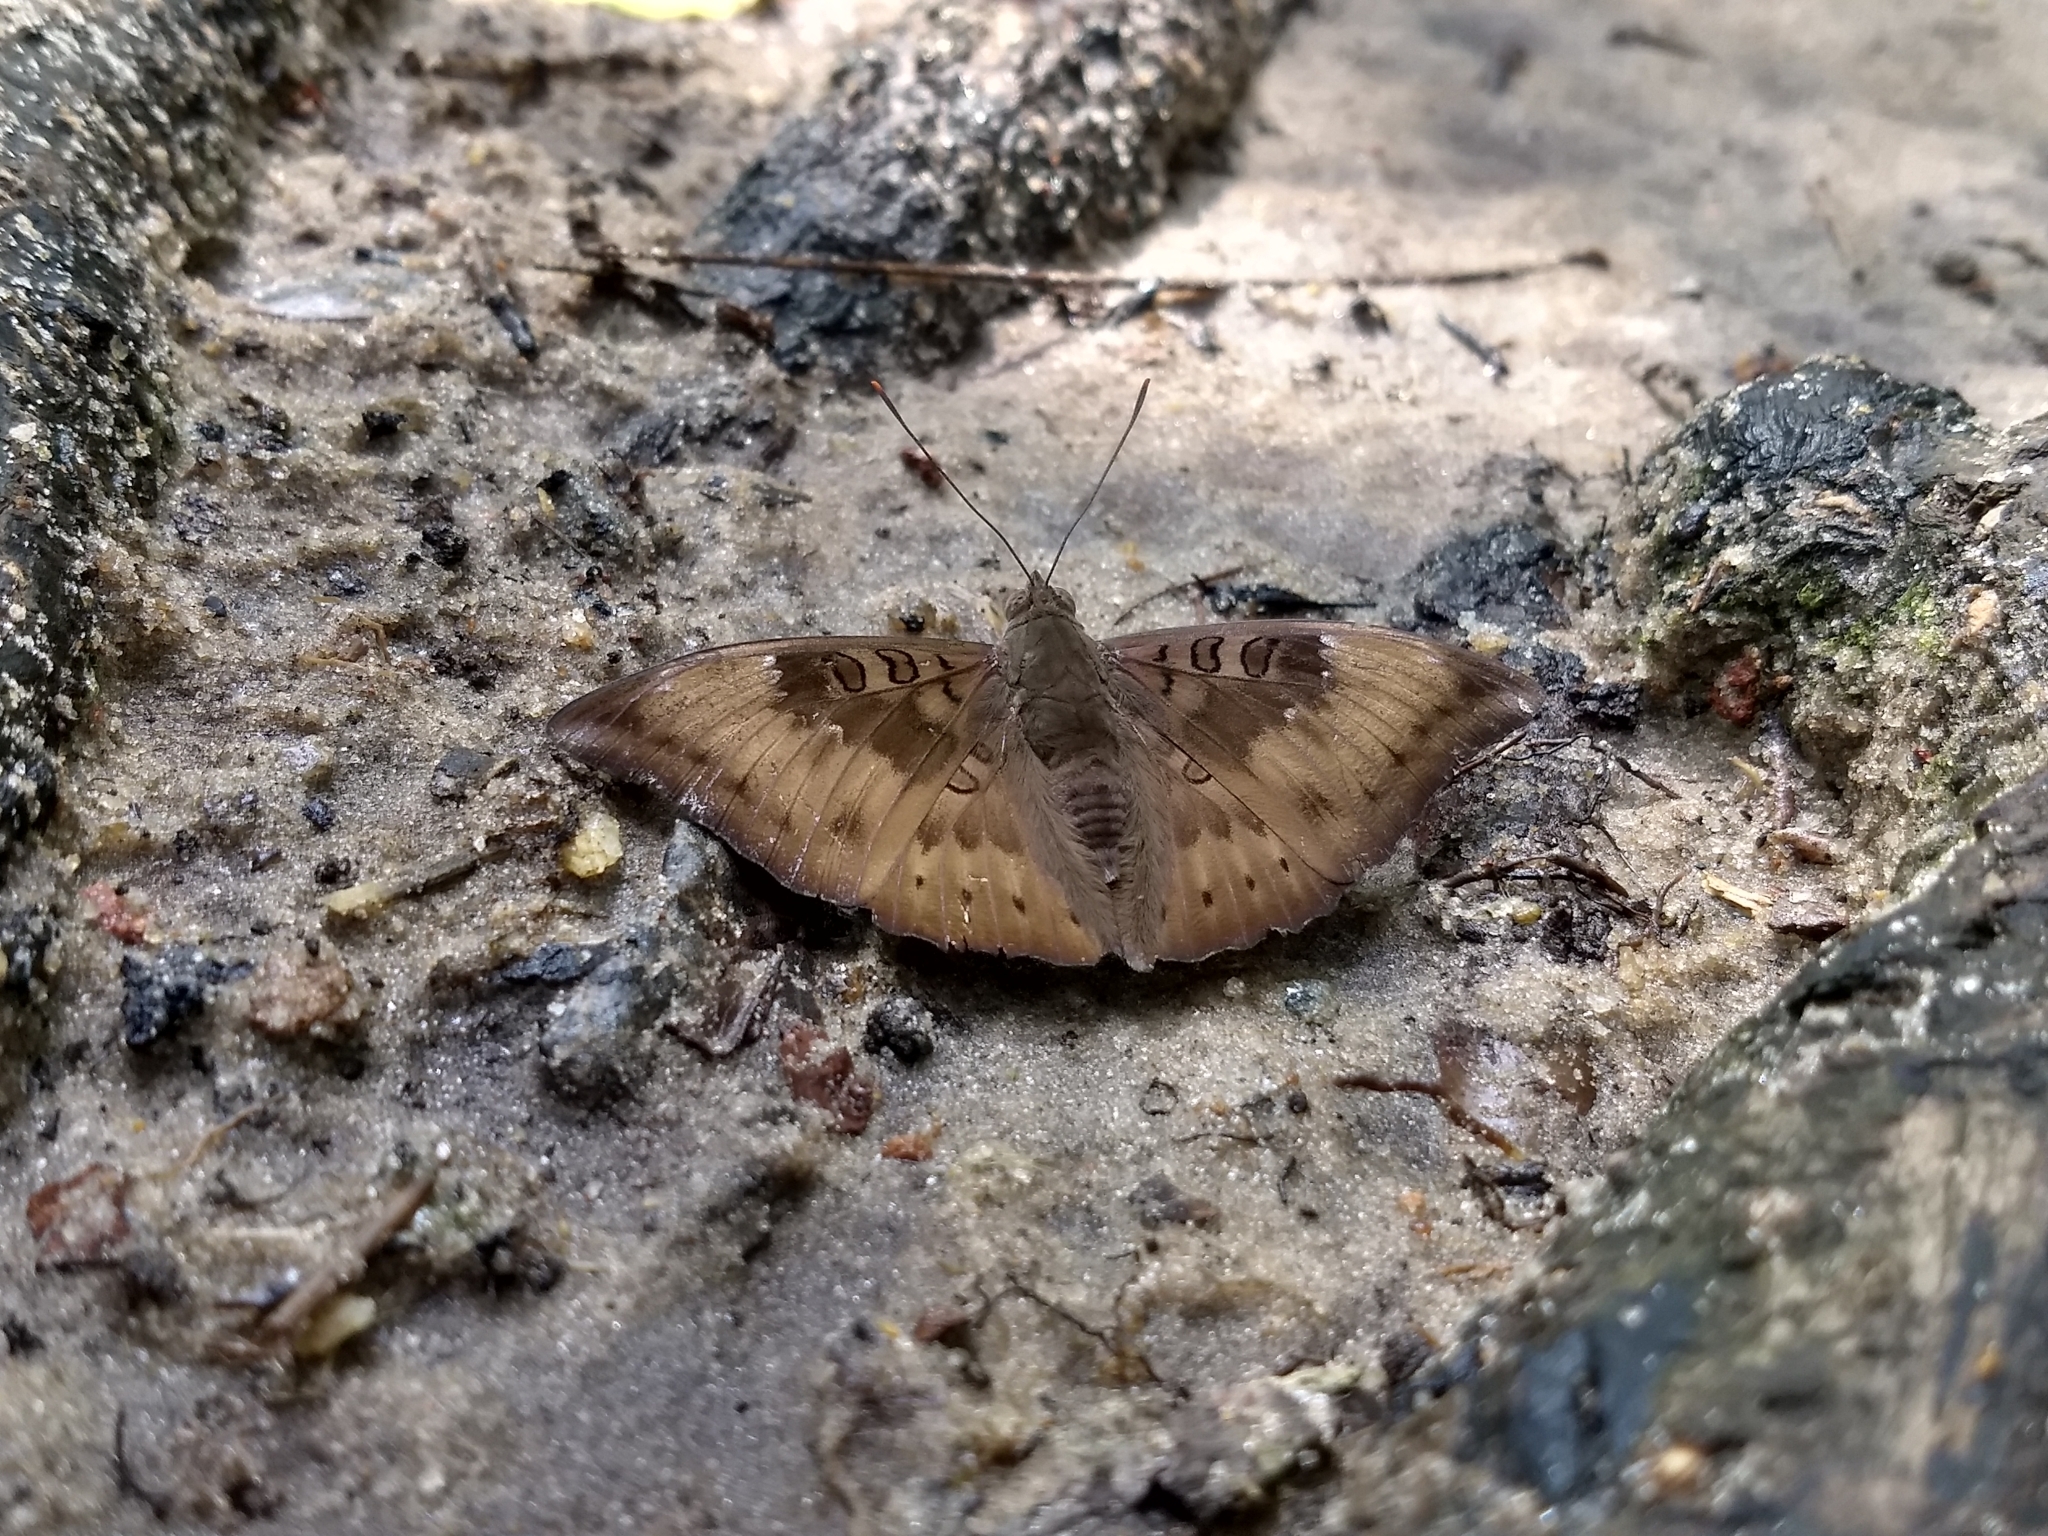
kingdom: Animalia
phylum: Arthropoda
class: Insecta
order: Lepidoptera
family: Nymphalidae
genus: Euthalia
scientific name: Euthalia aconthea
